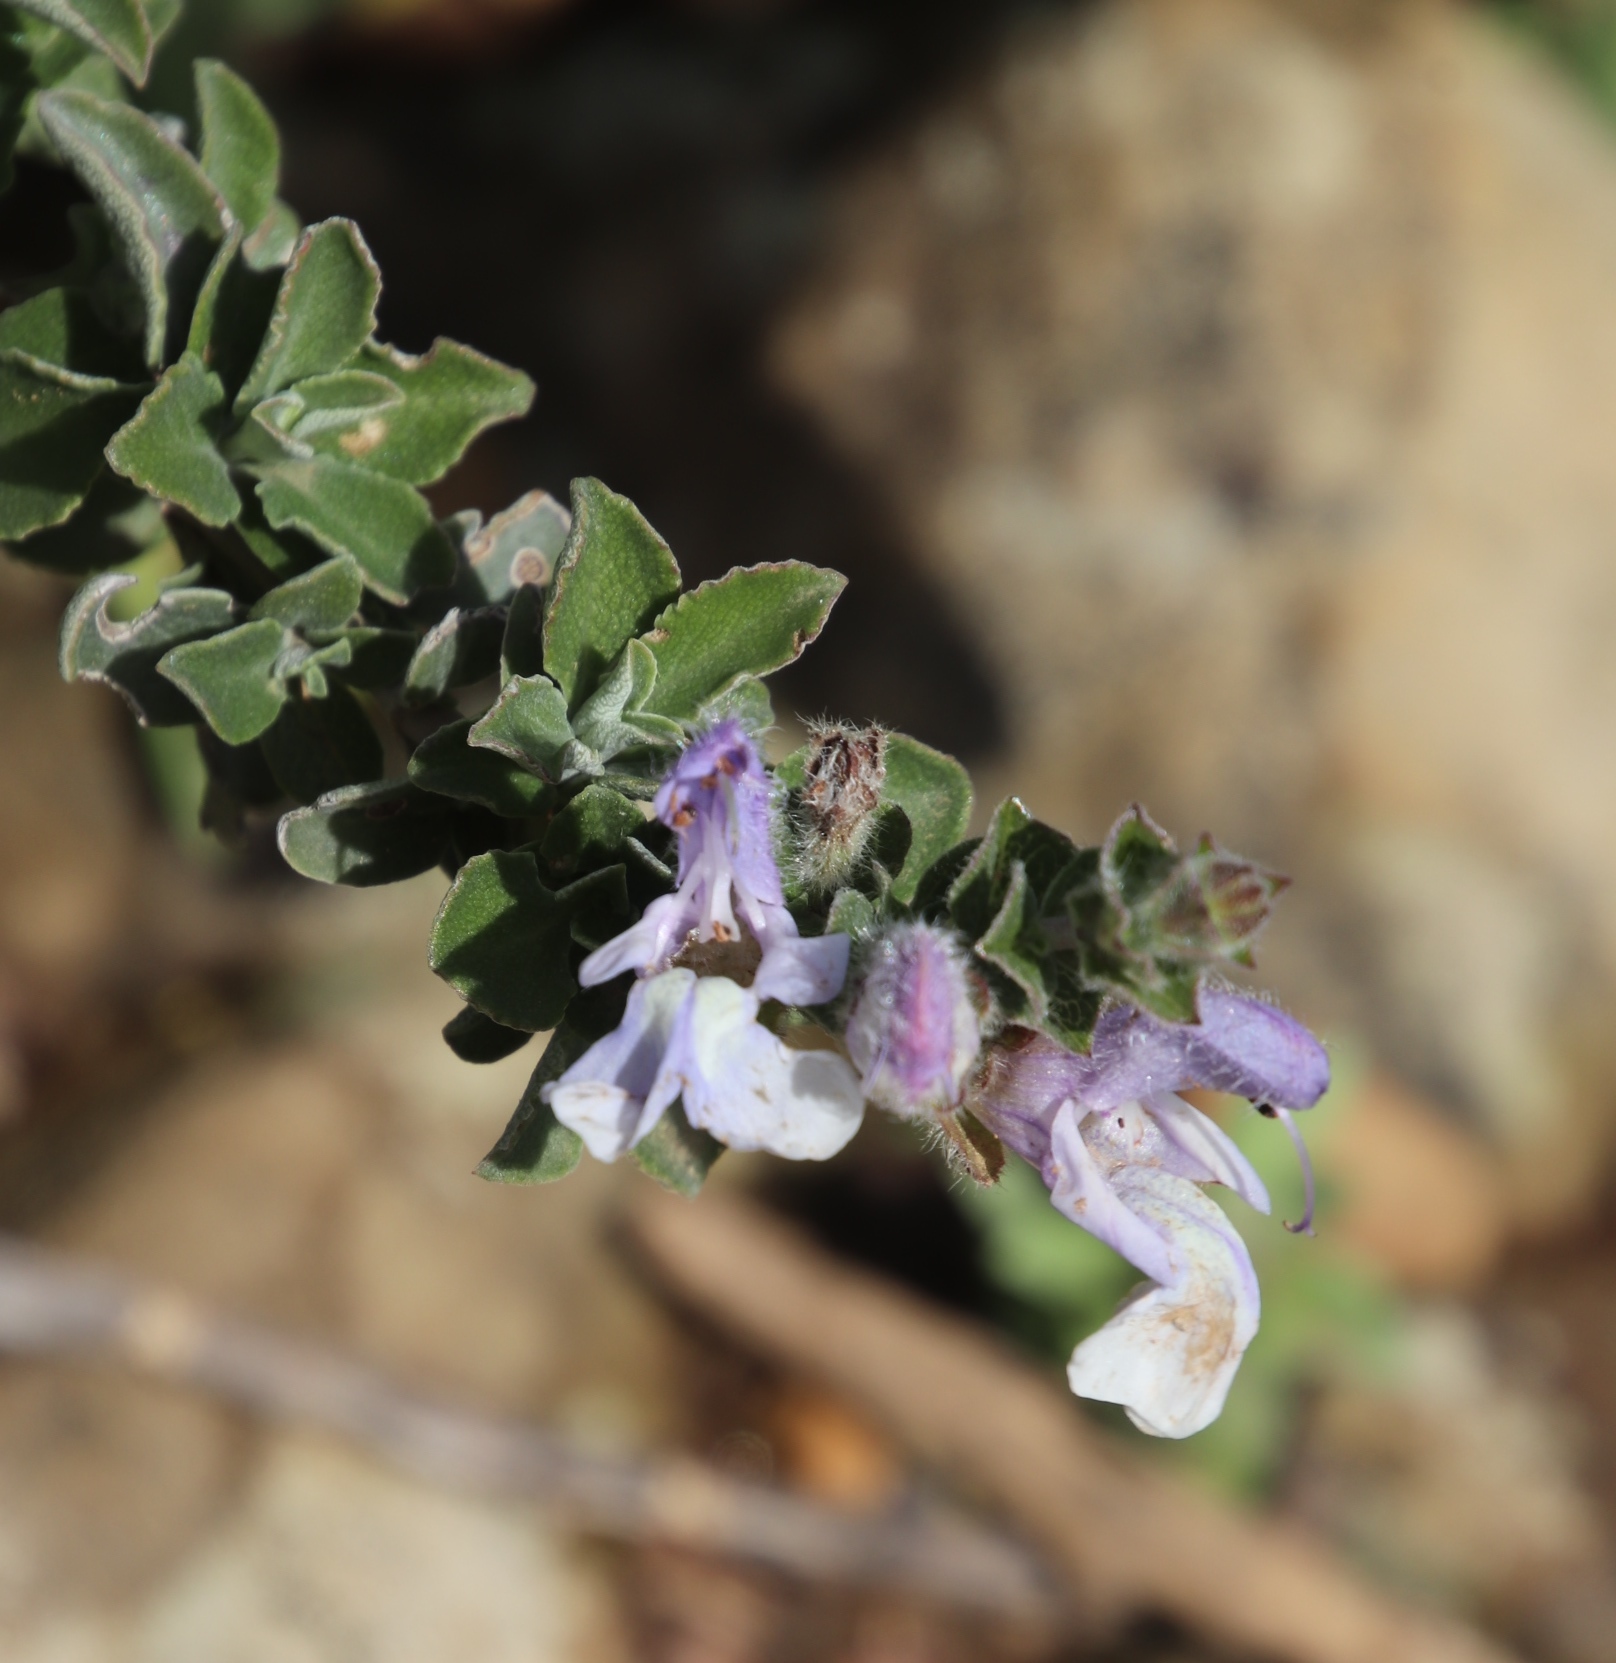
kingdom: Plantae
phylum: Tracheophyta
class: Magnoliopsida
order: Lamiales
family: Lamiaceae
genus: Salvia
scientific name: Salvia africana
